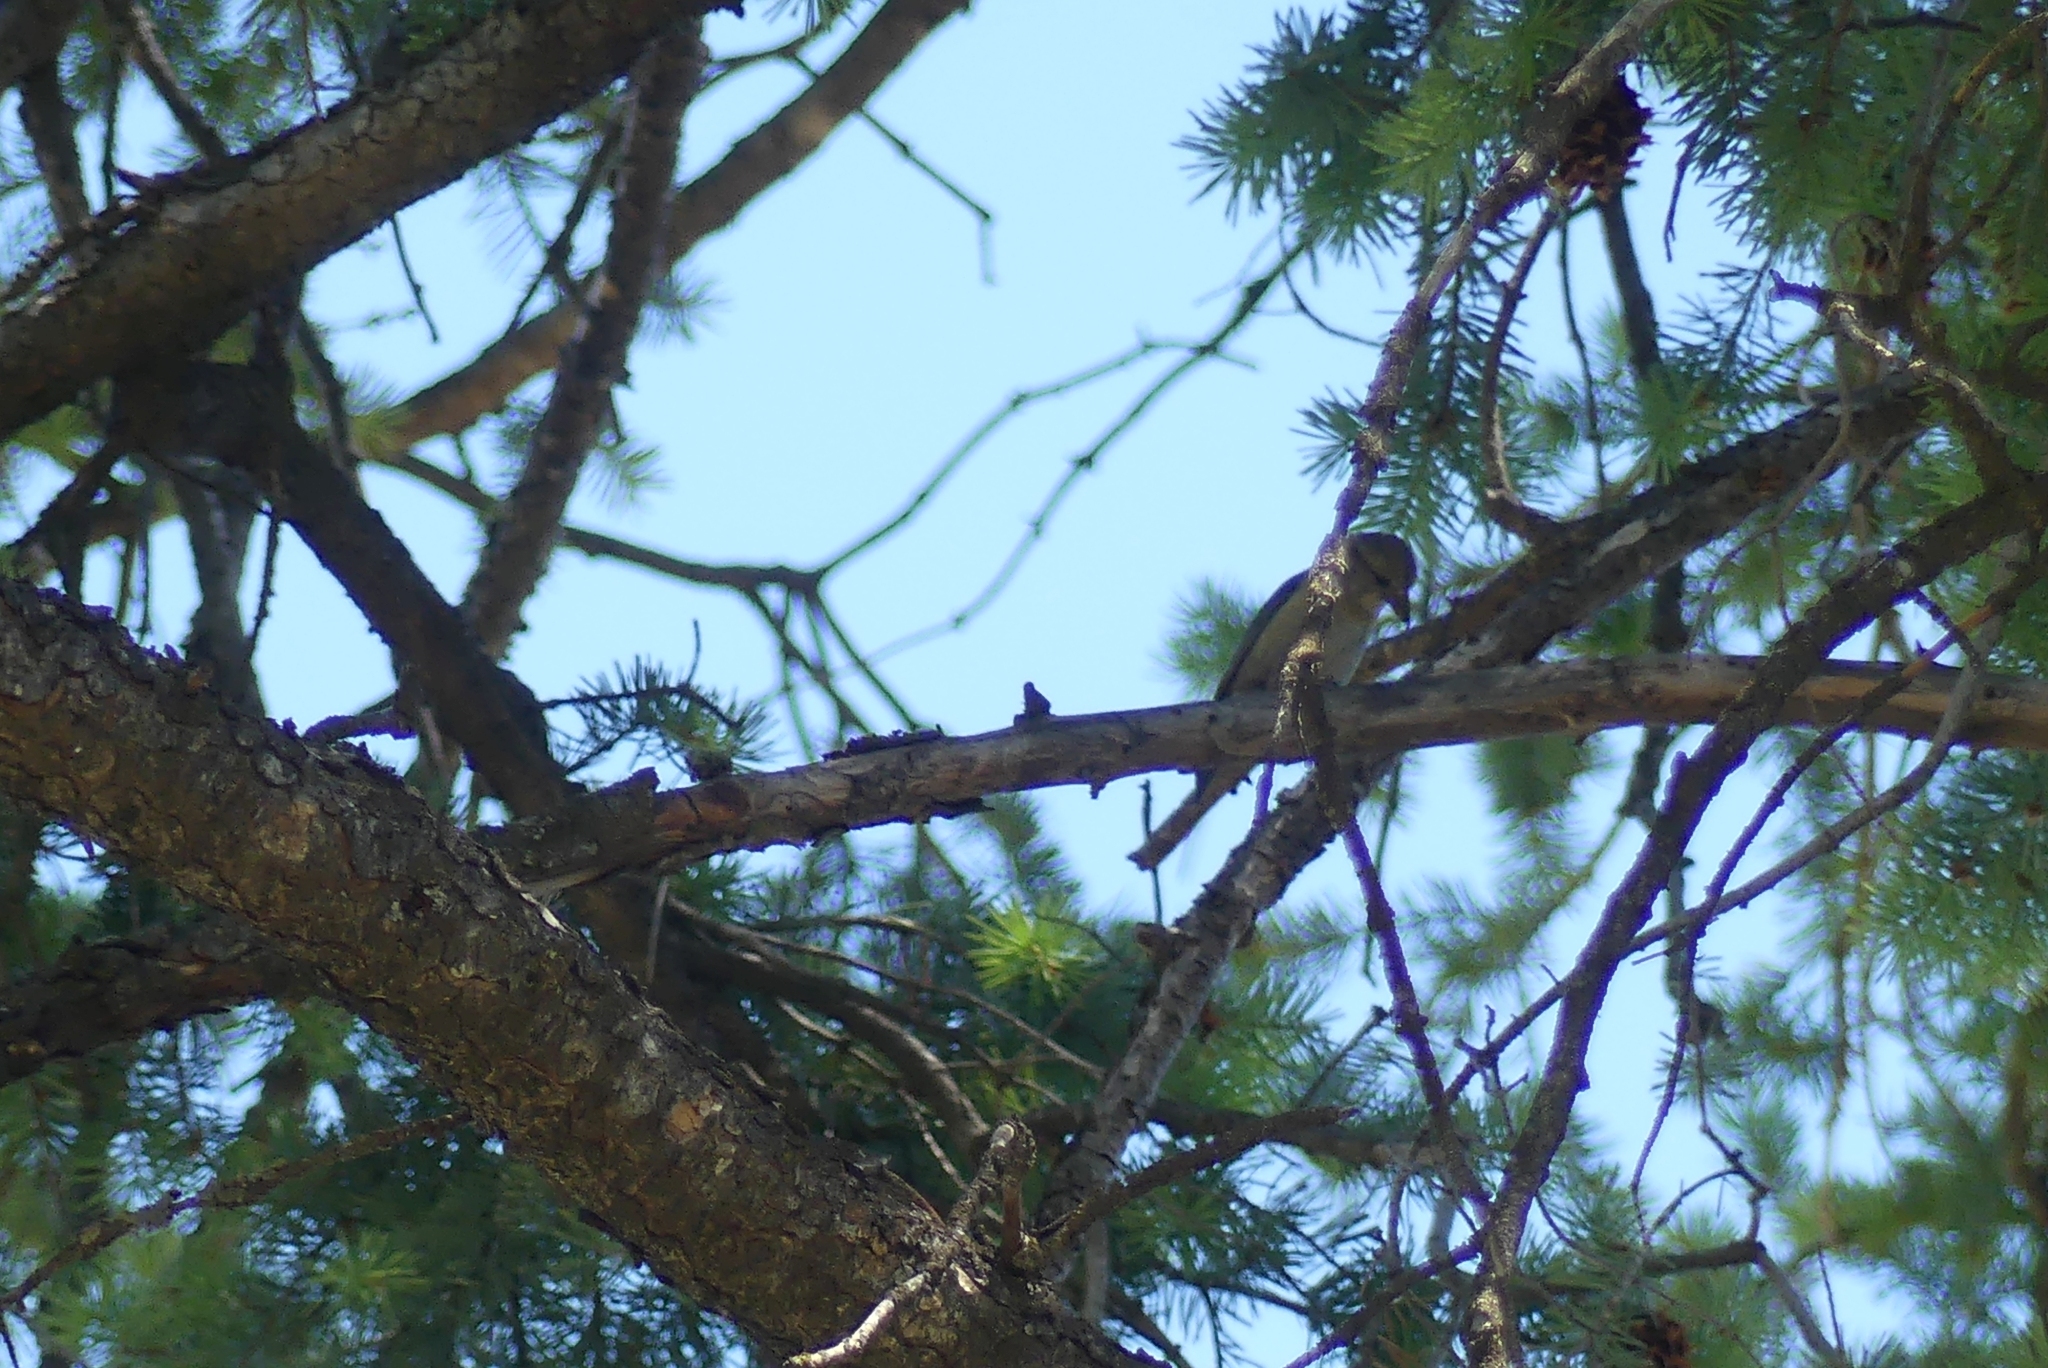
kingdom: Animalia
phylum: Chordata
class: Aves
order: Passeriformes
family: Fringillidae
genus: Loxia
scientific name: Loxia curvirostra
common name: Red crossbill
